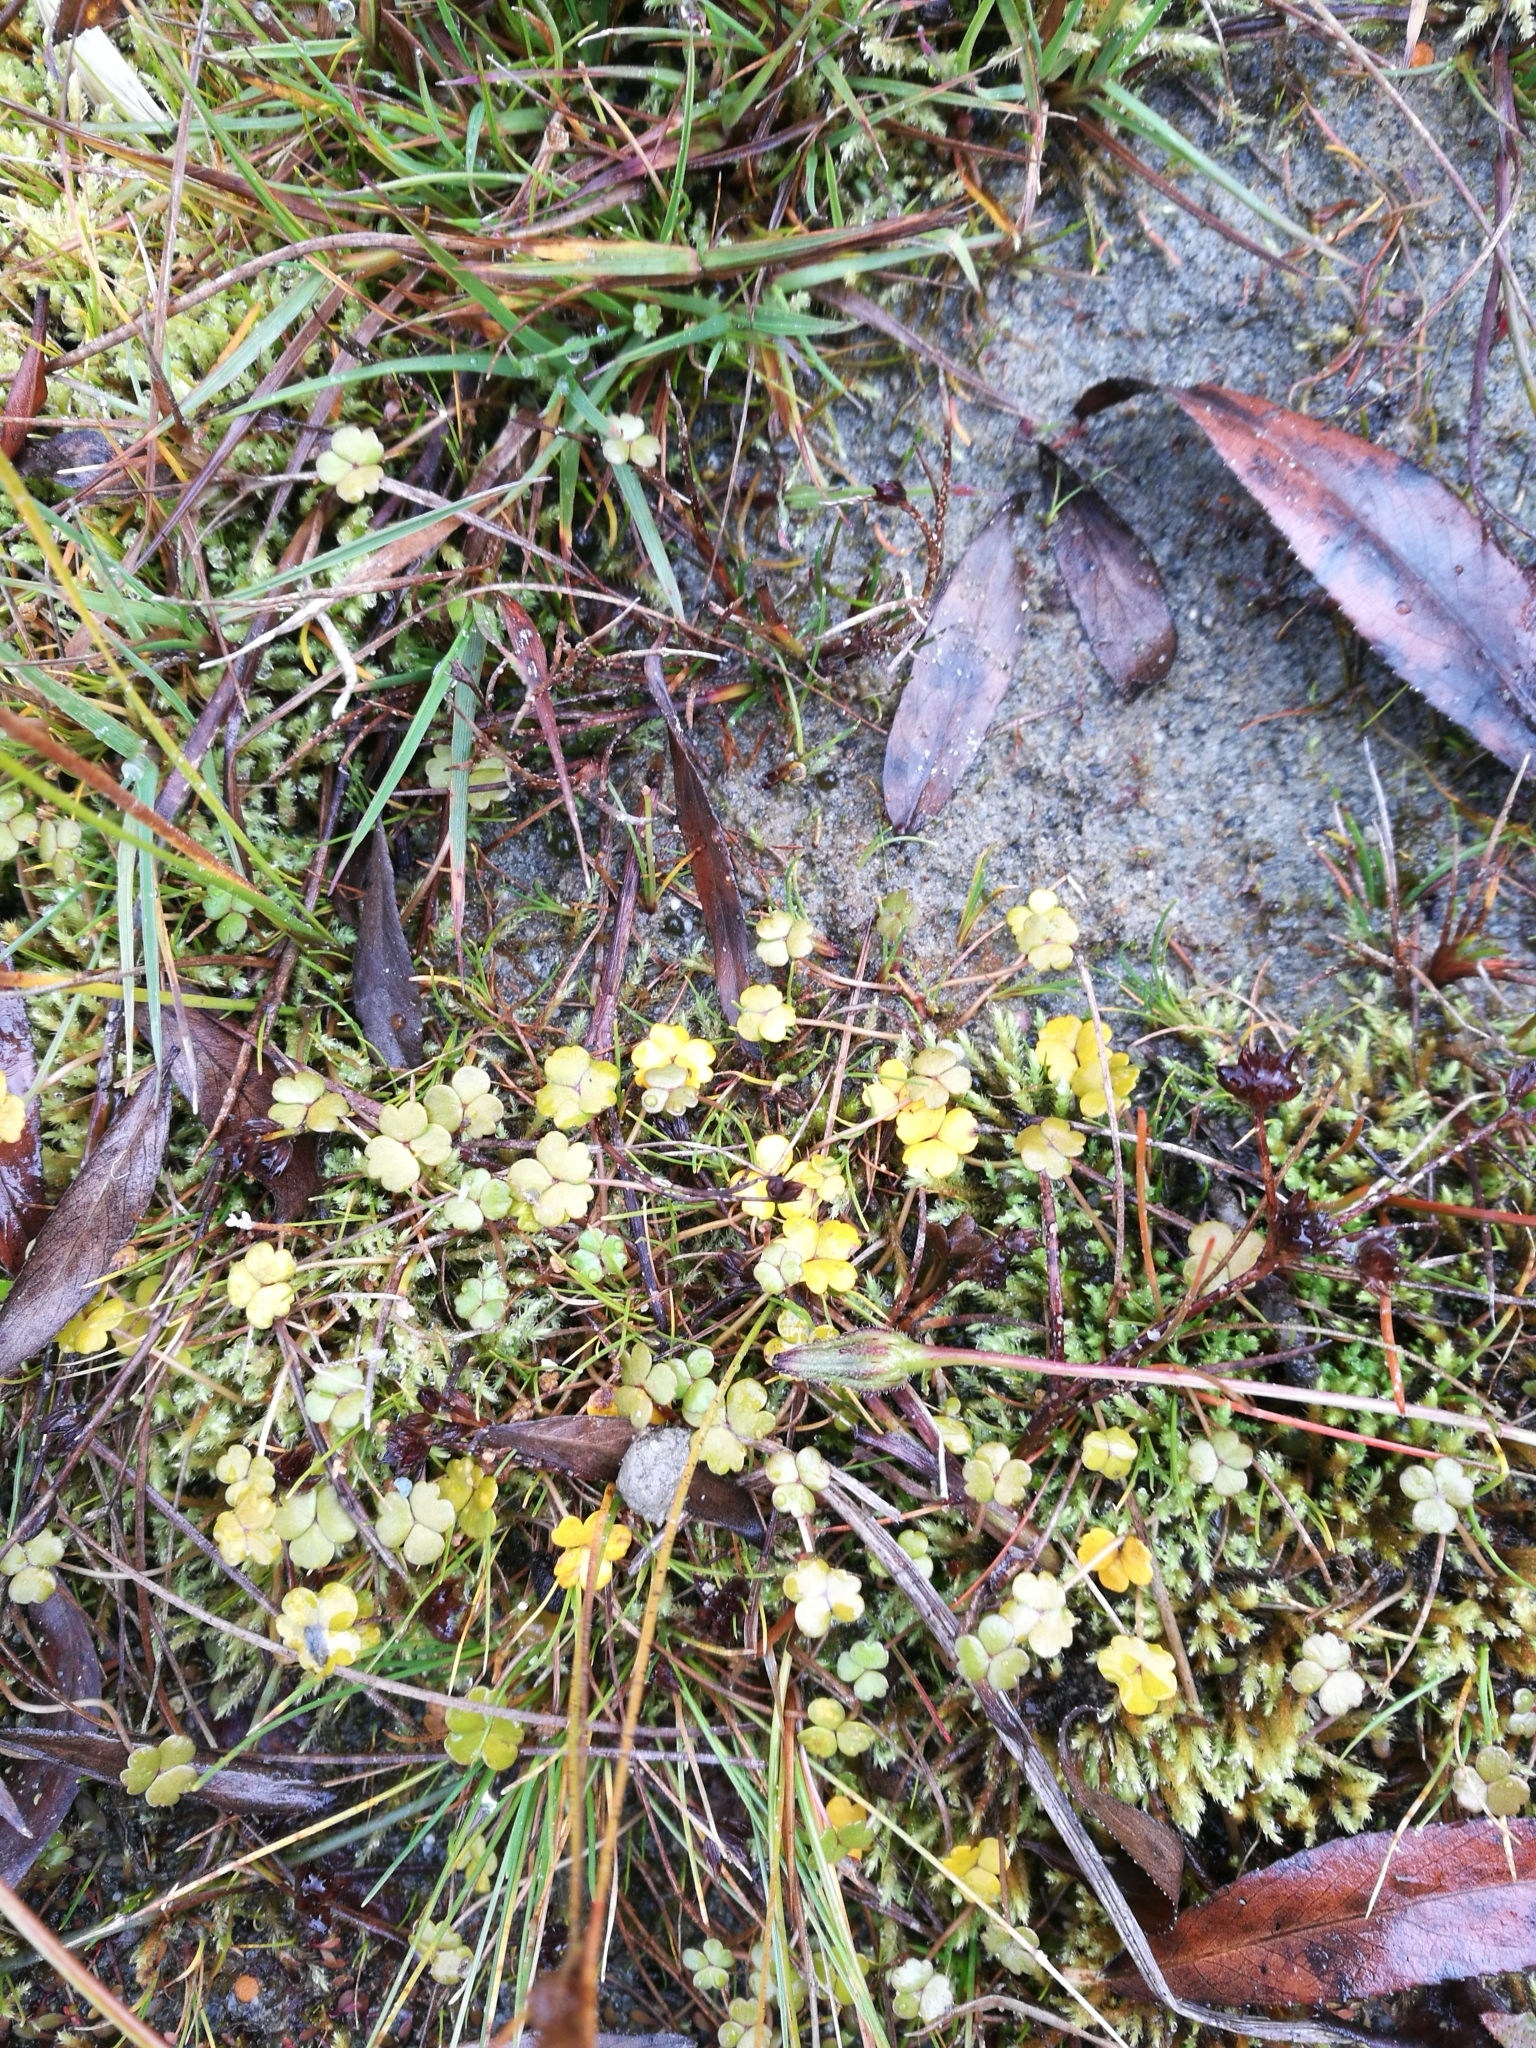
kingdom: Plantae
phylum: Tracheophyta
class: Magnoliopsida
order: Apiales
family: Araliaceae
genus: Hydrocotyle
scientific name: Hydrocotyle sulcata
